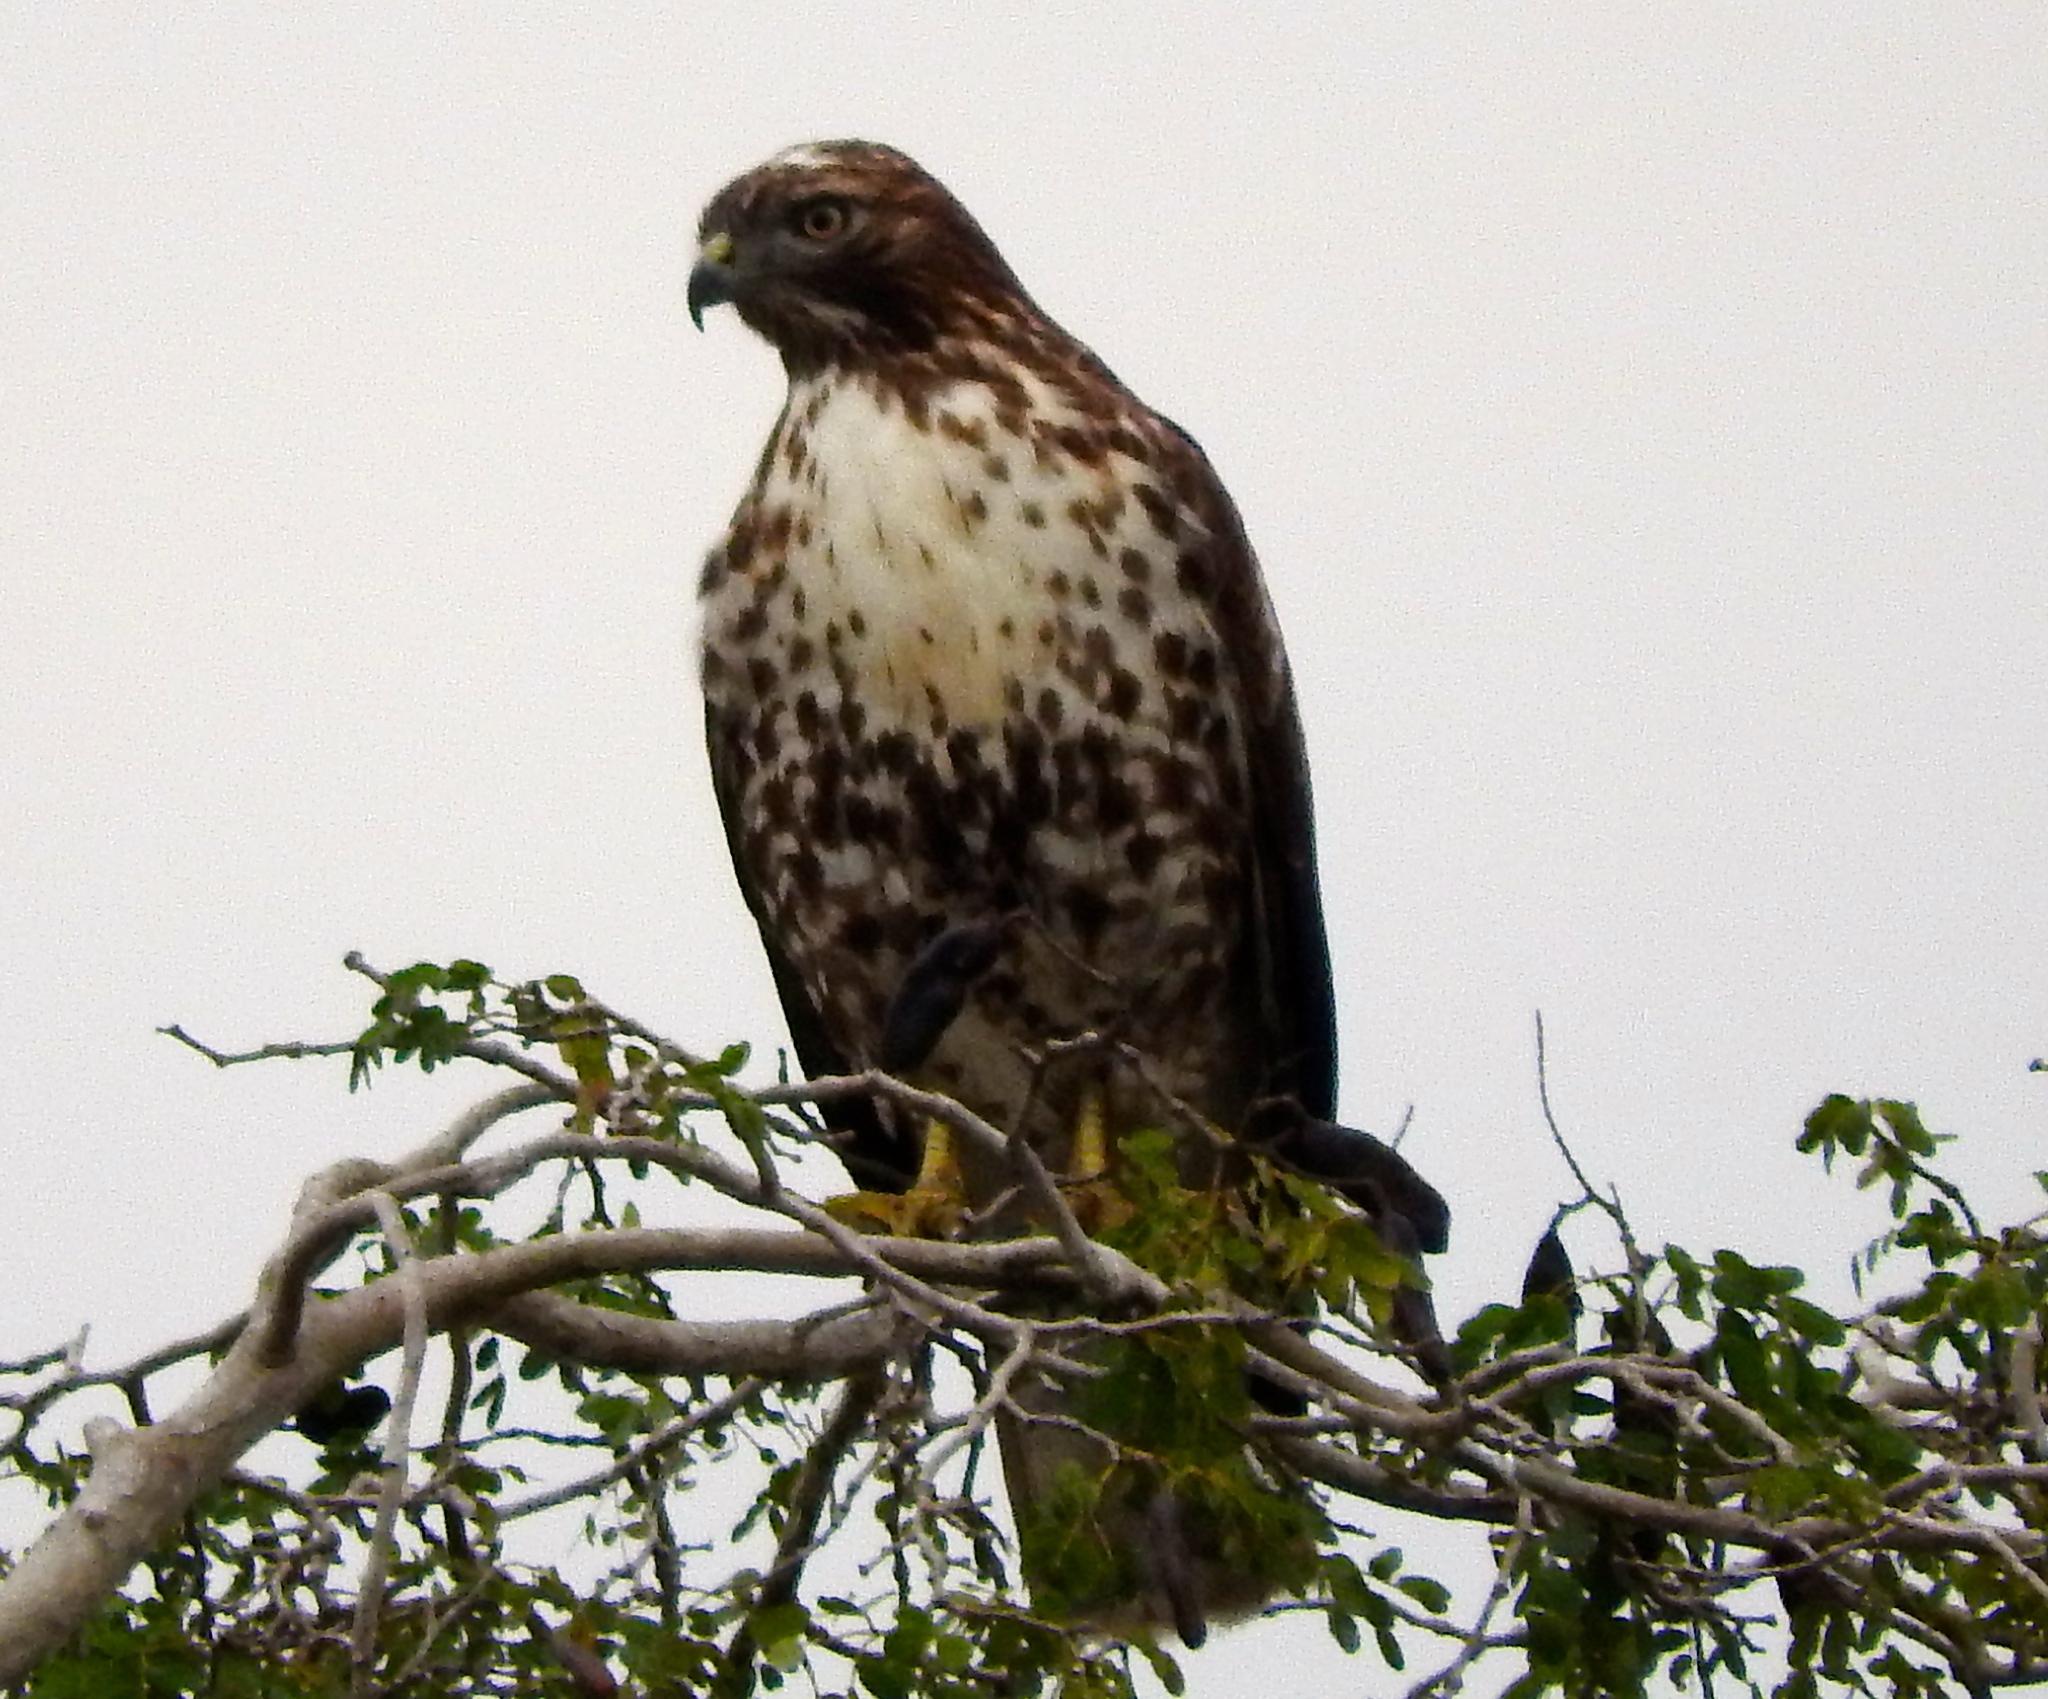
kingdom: Animalia
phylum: Chordata
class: Aves
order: Accipitriformes
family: Accipitridae
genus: Buteo
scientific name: Buteo jamaicensis
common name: Red-tailed hawk
